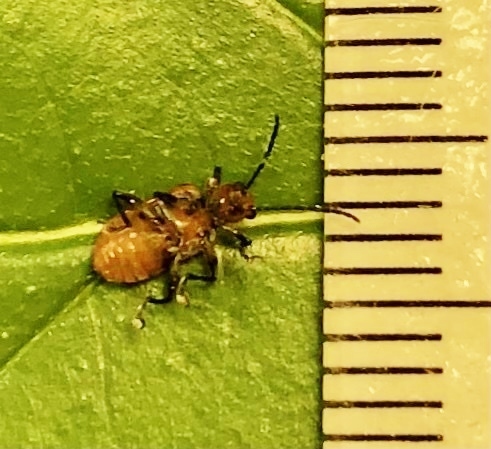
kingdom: Animalia
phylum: Arthropoda
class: Insecta
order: Coleoptera
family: Chrysomelidae
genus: Neolema
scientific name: Neolema sexpunctata
